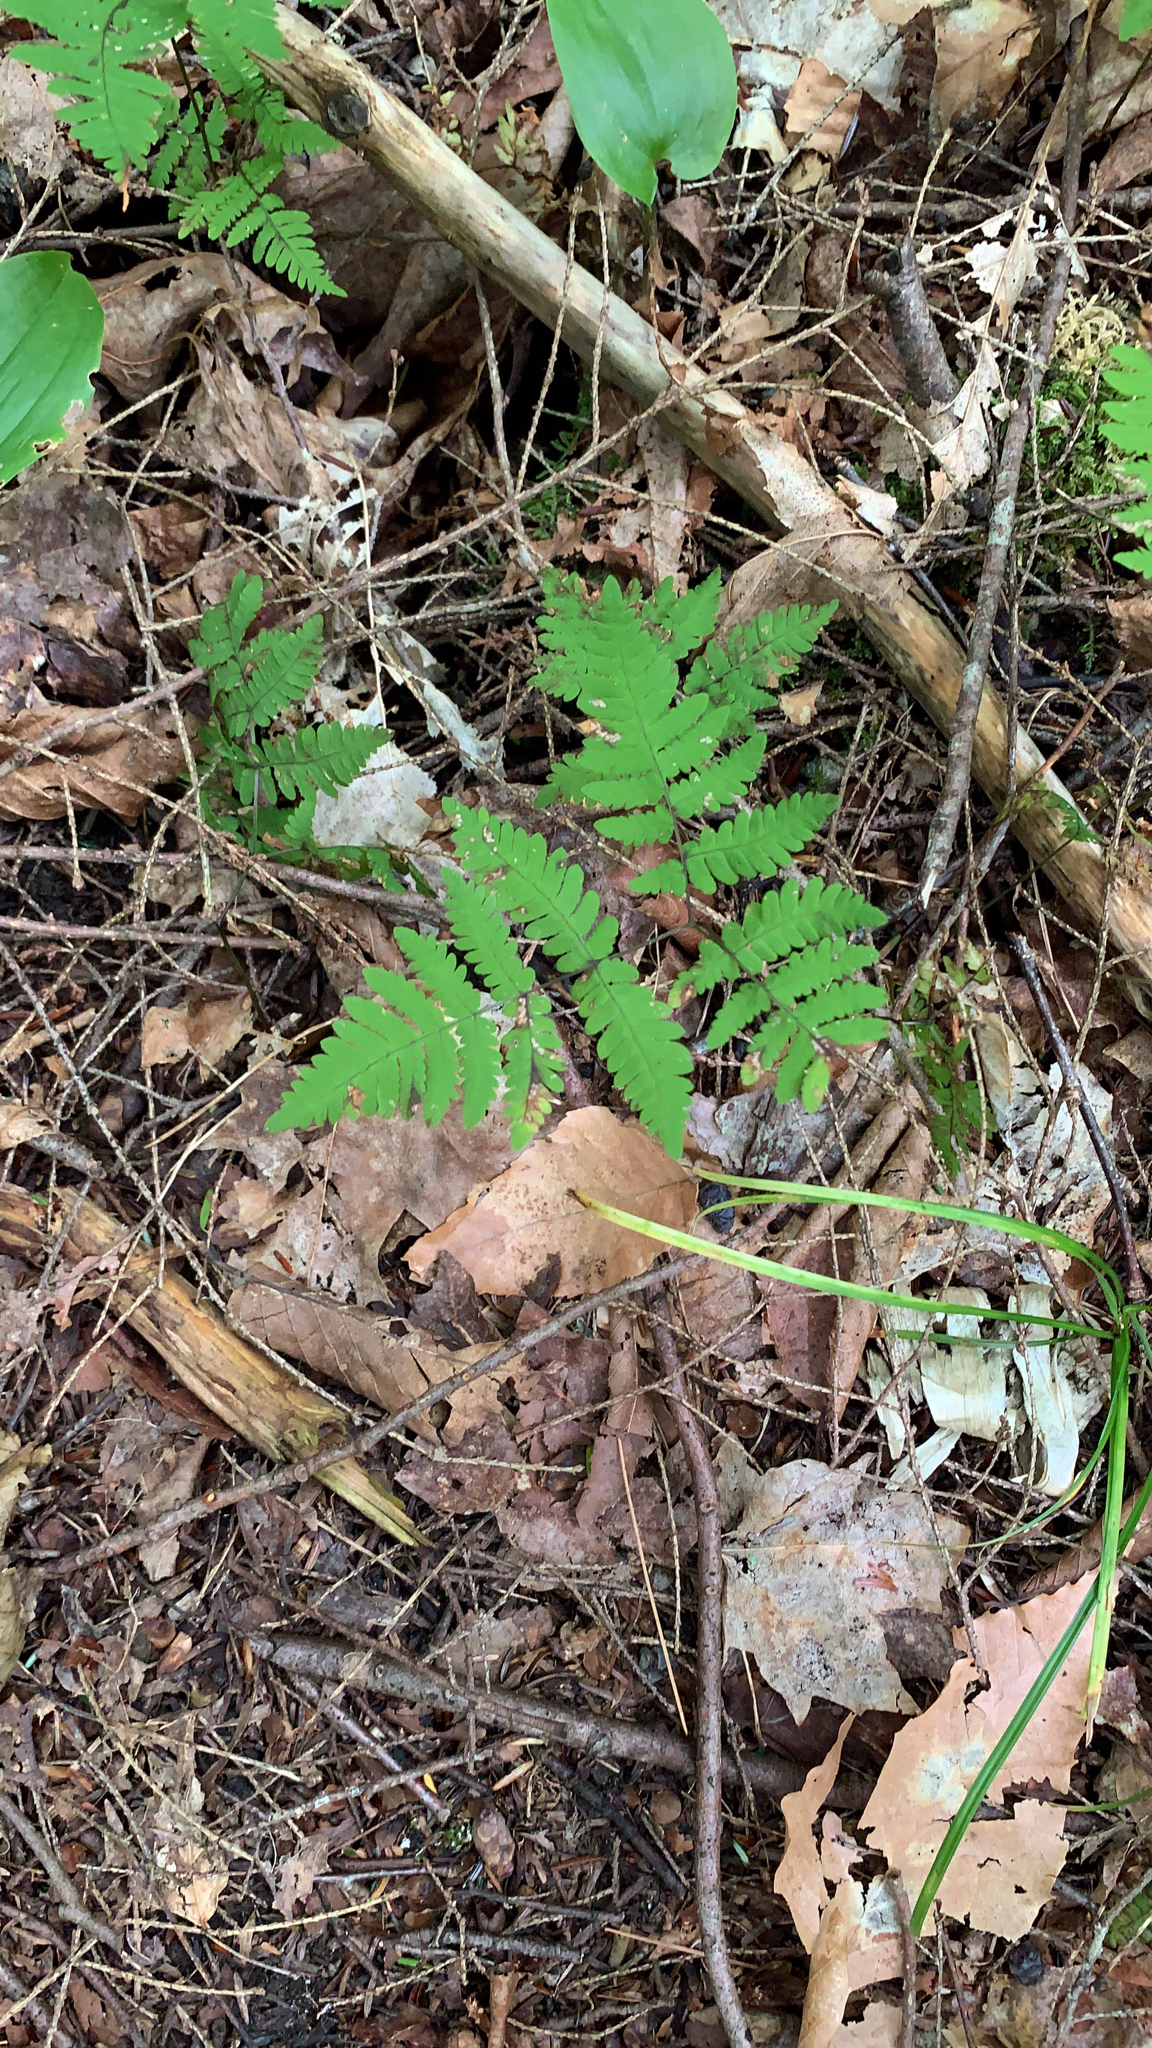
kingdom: Plantae
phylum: Tracheophyta
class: Polypodiopsida
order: Polypodiales
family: Cystopteridaceae
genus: Gymnocarpium
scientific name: Gymnocarpium dryopteris
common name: Oak fern
